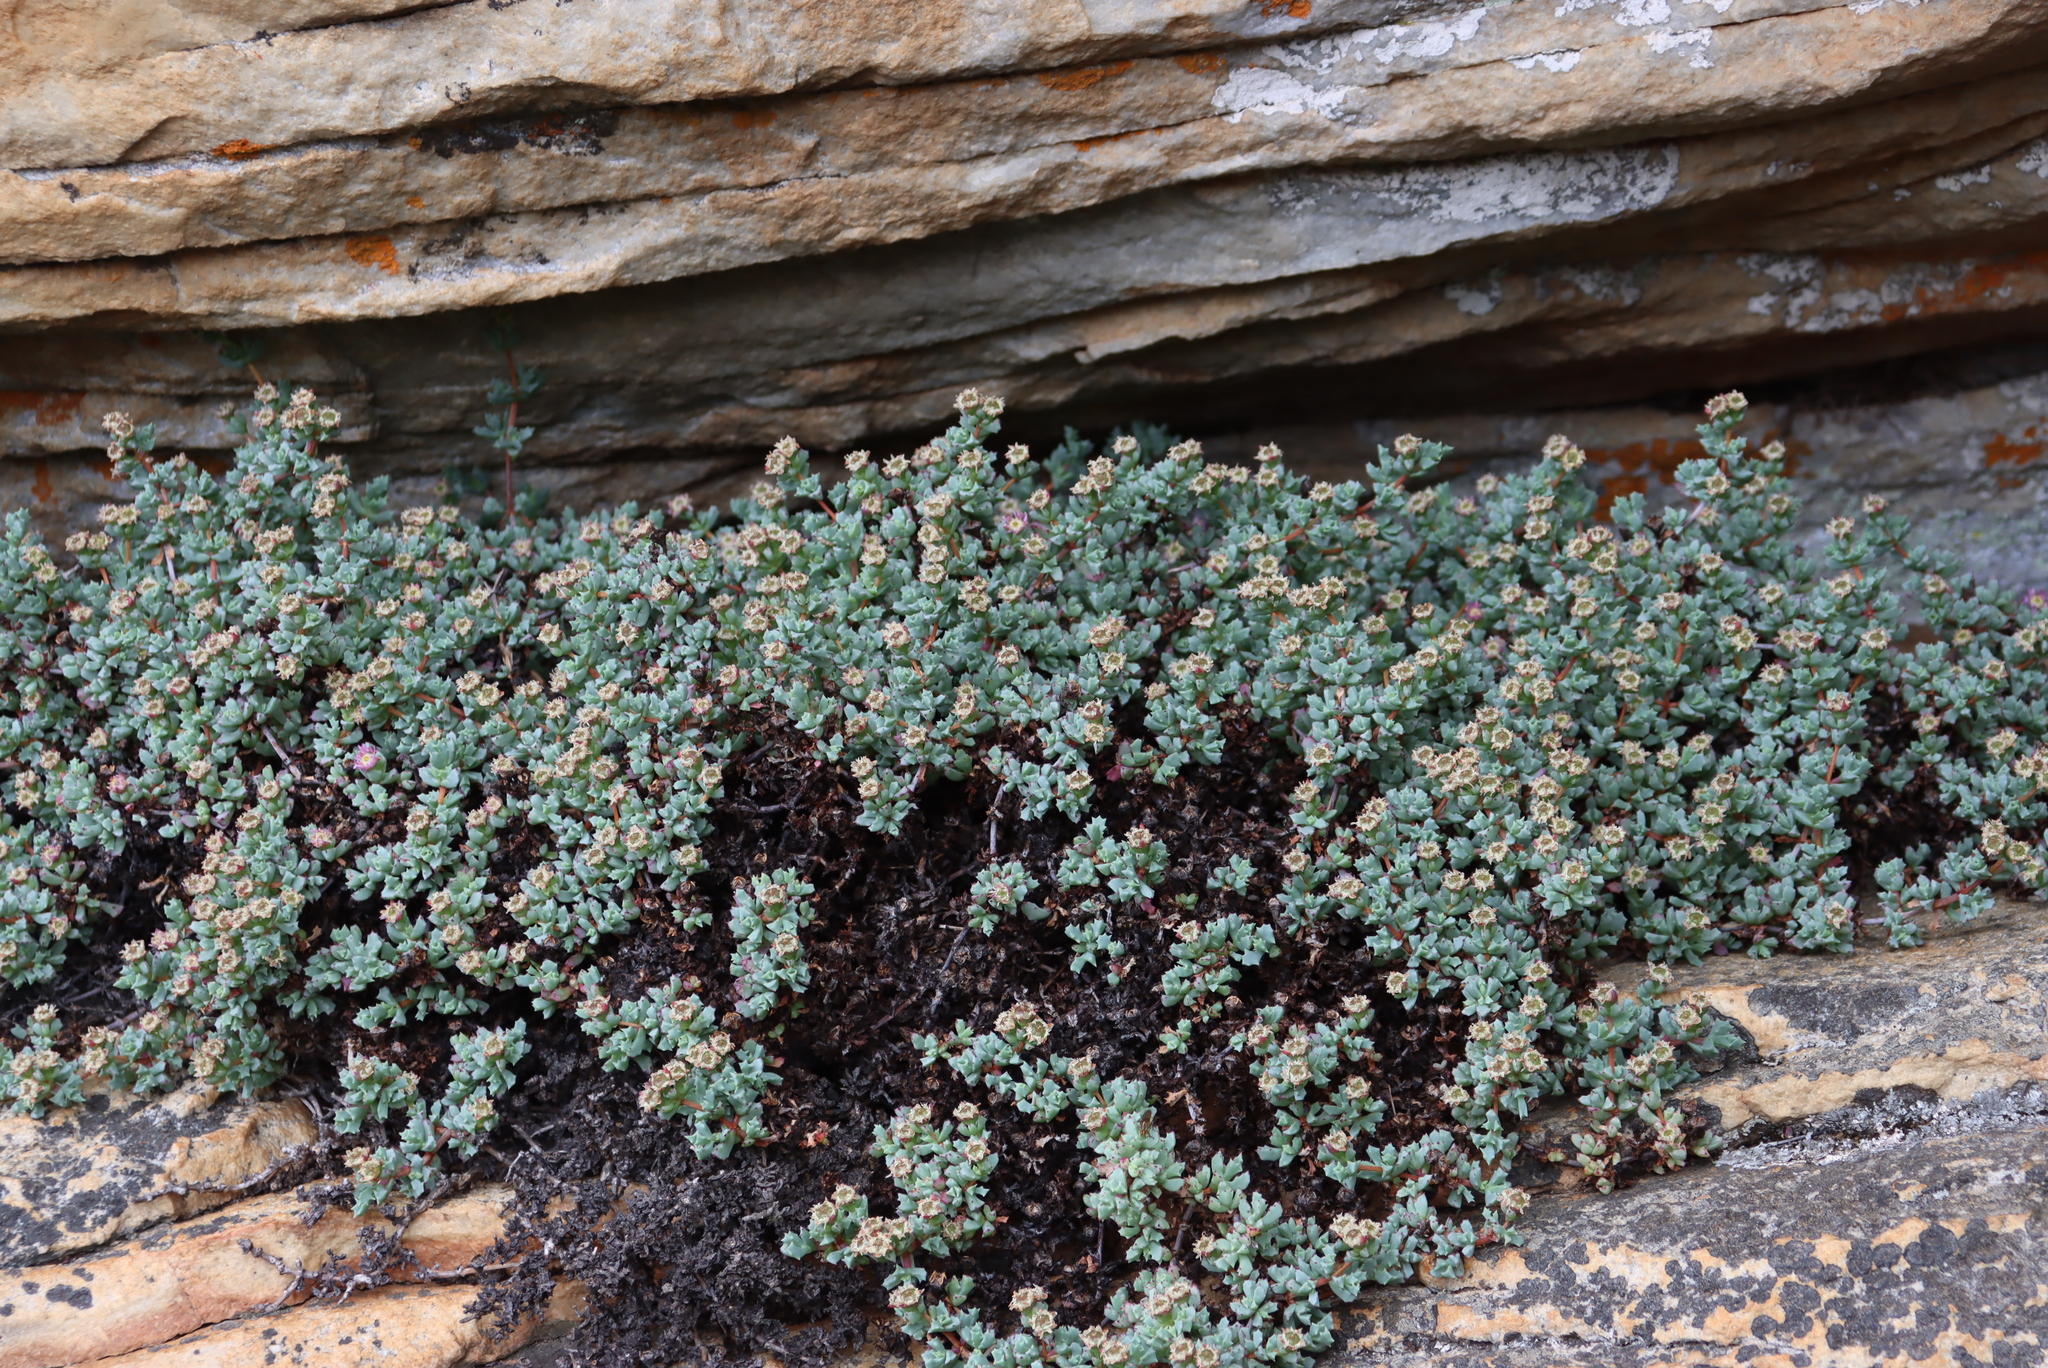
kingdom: Plantae
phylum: Tracheophyta
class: Magnoliopsida
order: Caryophyllales
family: Aizoaceae
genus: Oscularia
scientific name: Oscularia deltoides
